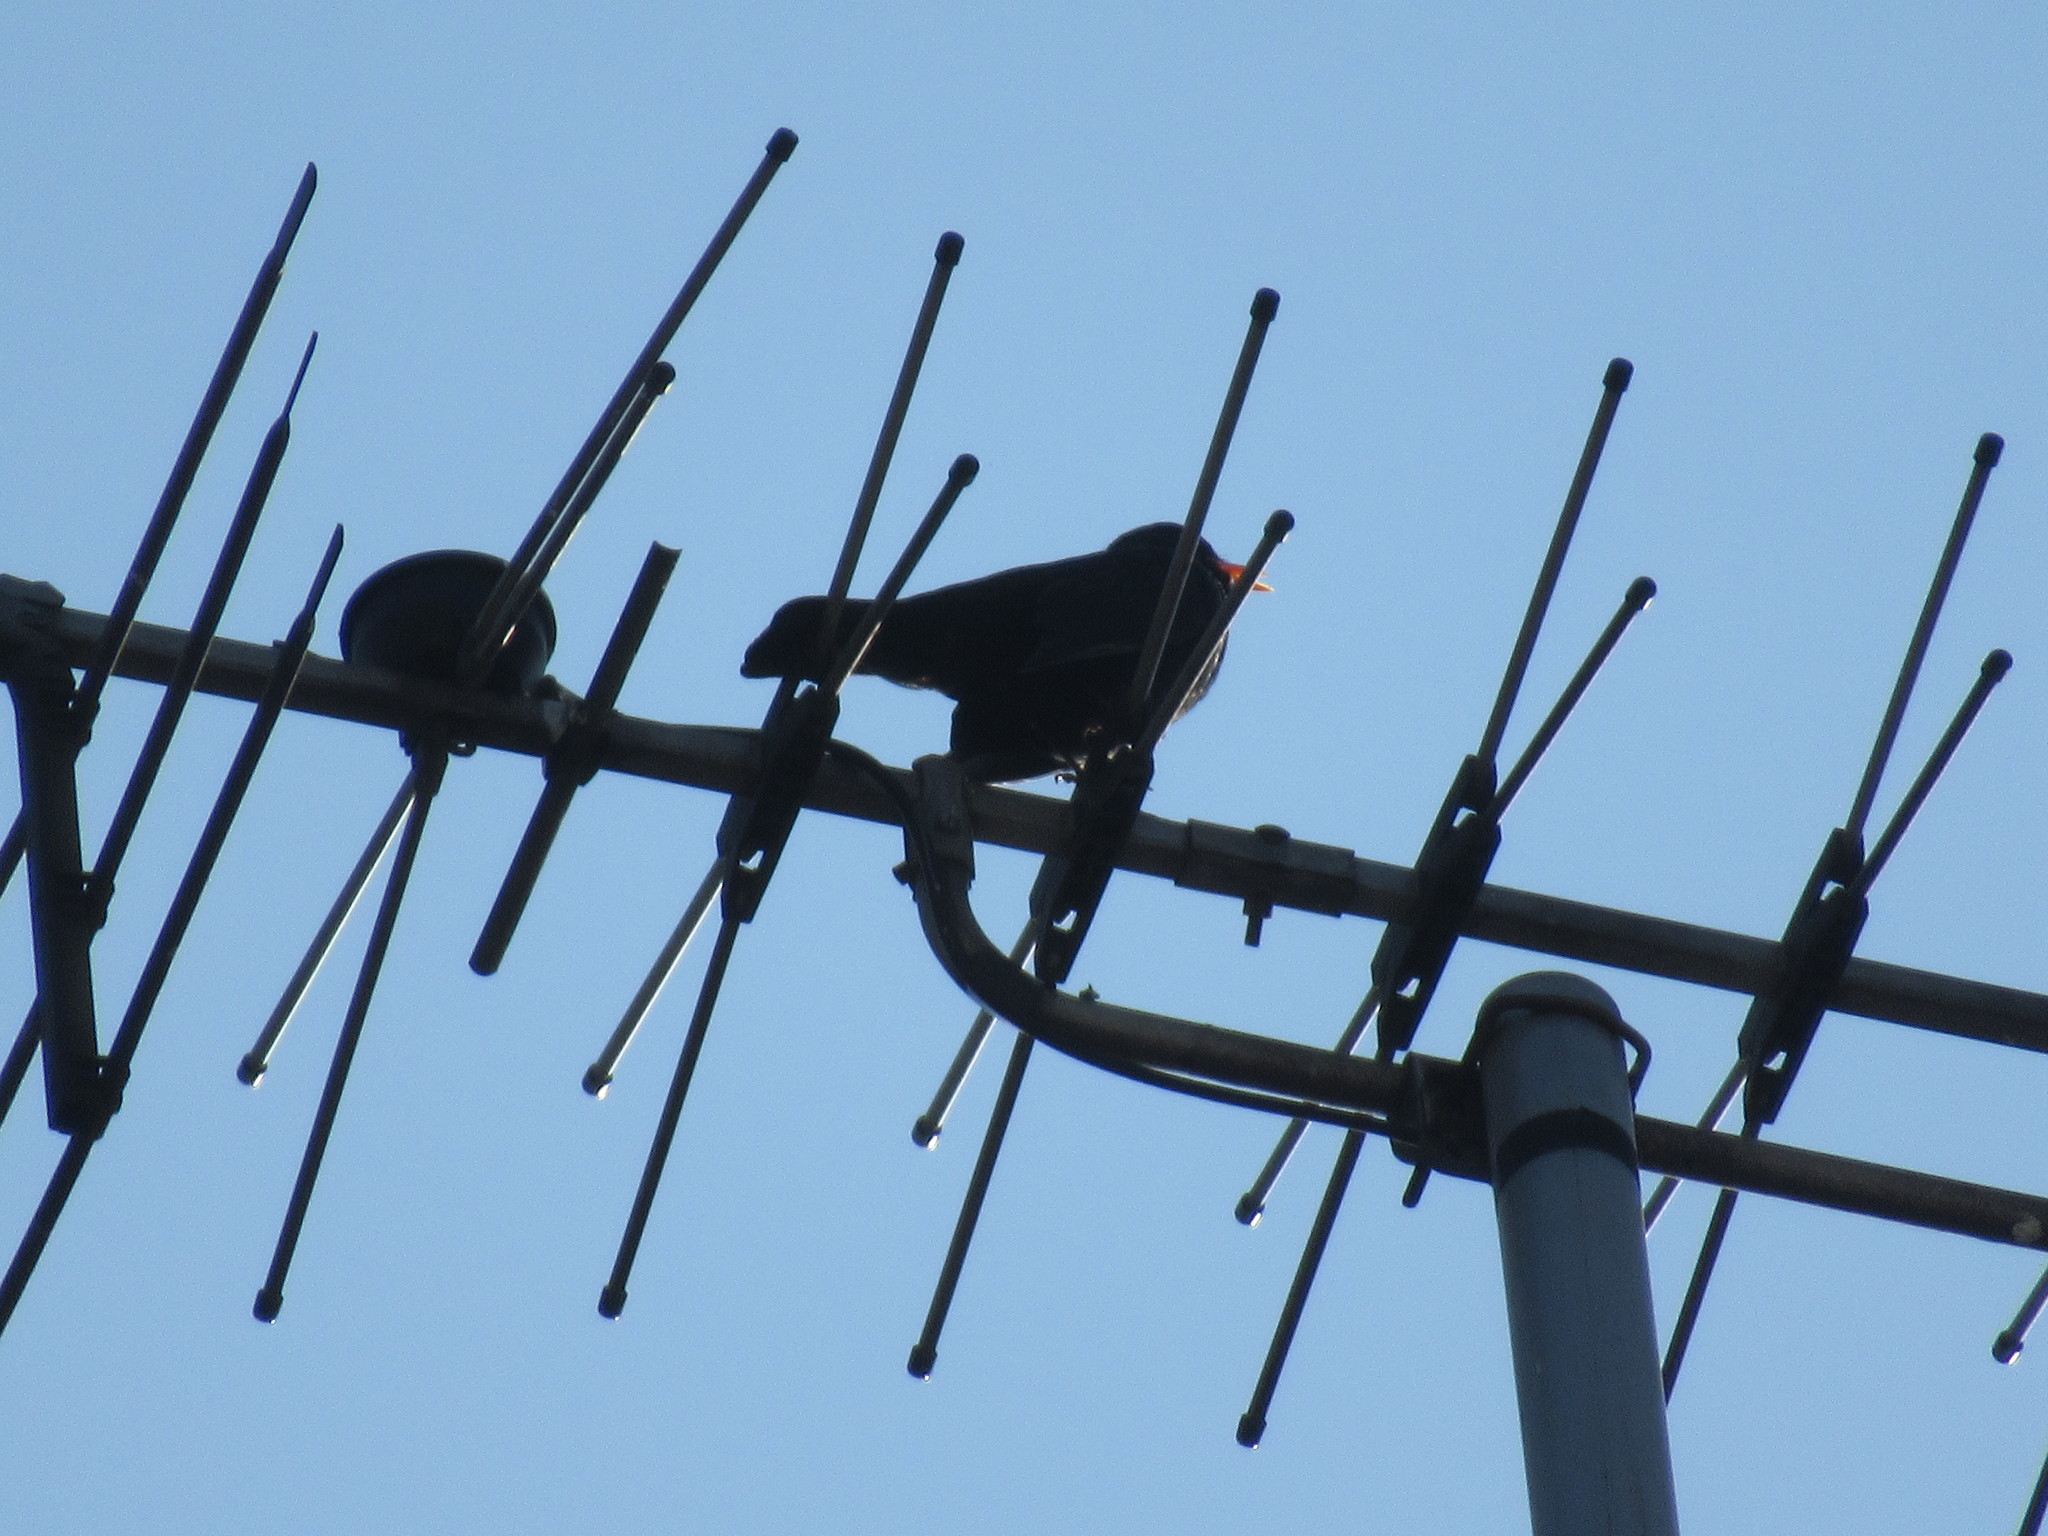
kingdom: Animalia
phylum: Chordata
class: Aves
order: Passeriformes
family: Turdidae
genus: Turdus
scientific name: Turdus merula
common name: Common blackbird
